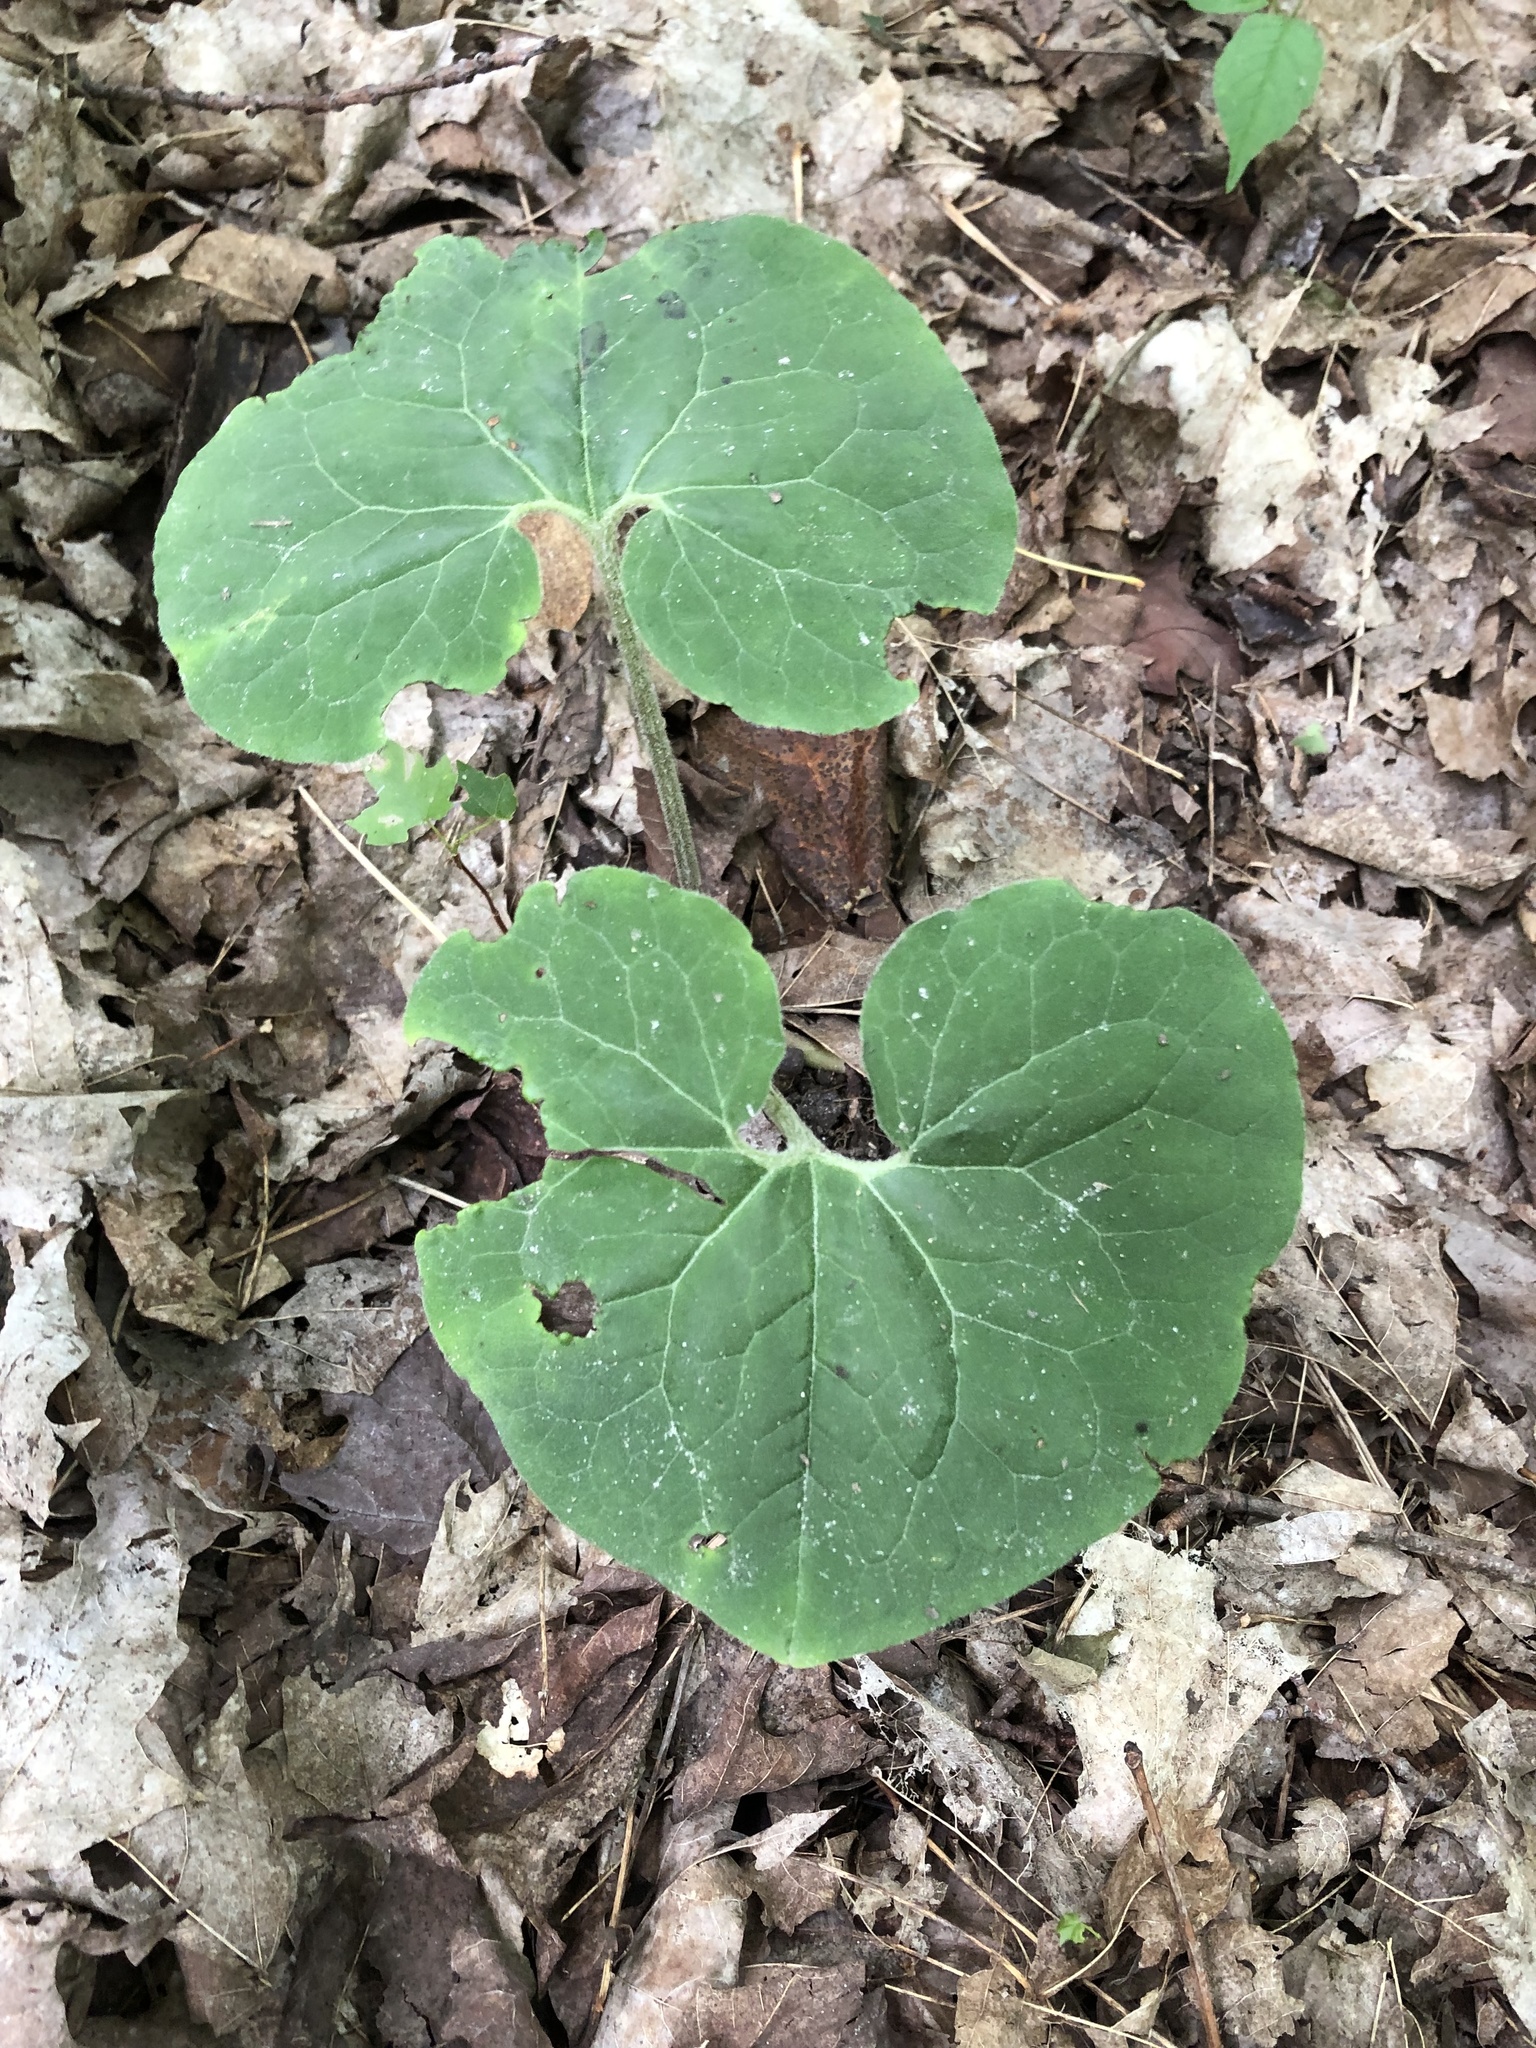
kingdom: Plantae
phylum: Tracheophyta
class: Magnoliopsida
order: Piperales
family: Aristolochiaceae
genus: Asarum
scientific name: Asarum canadense
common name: Wild ginger
